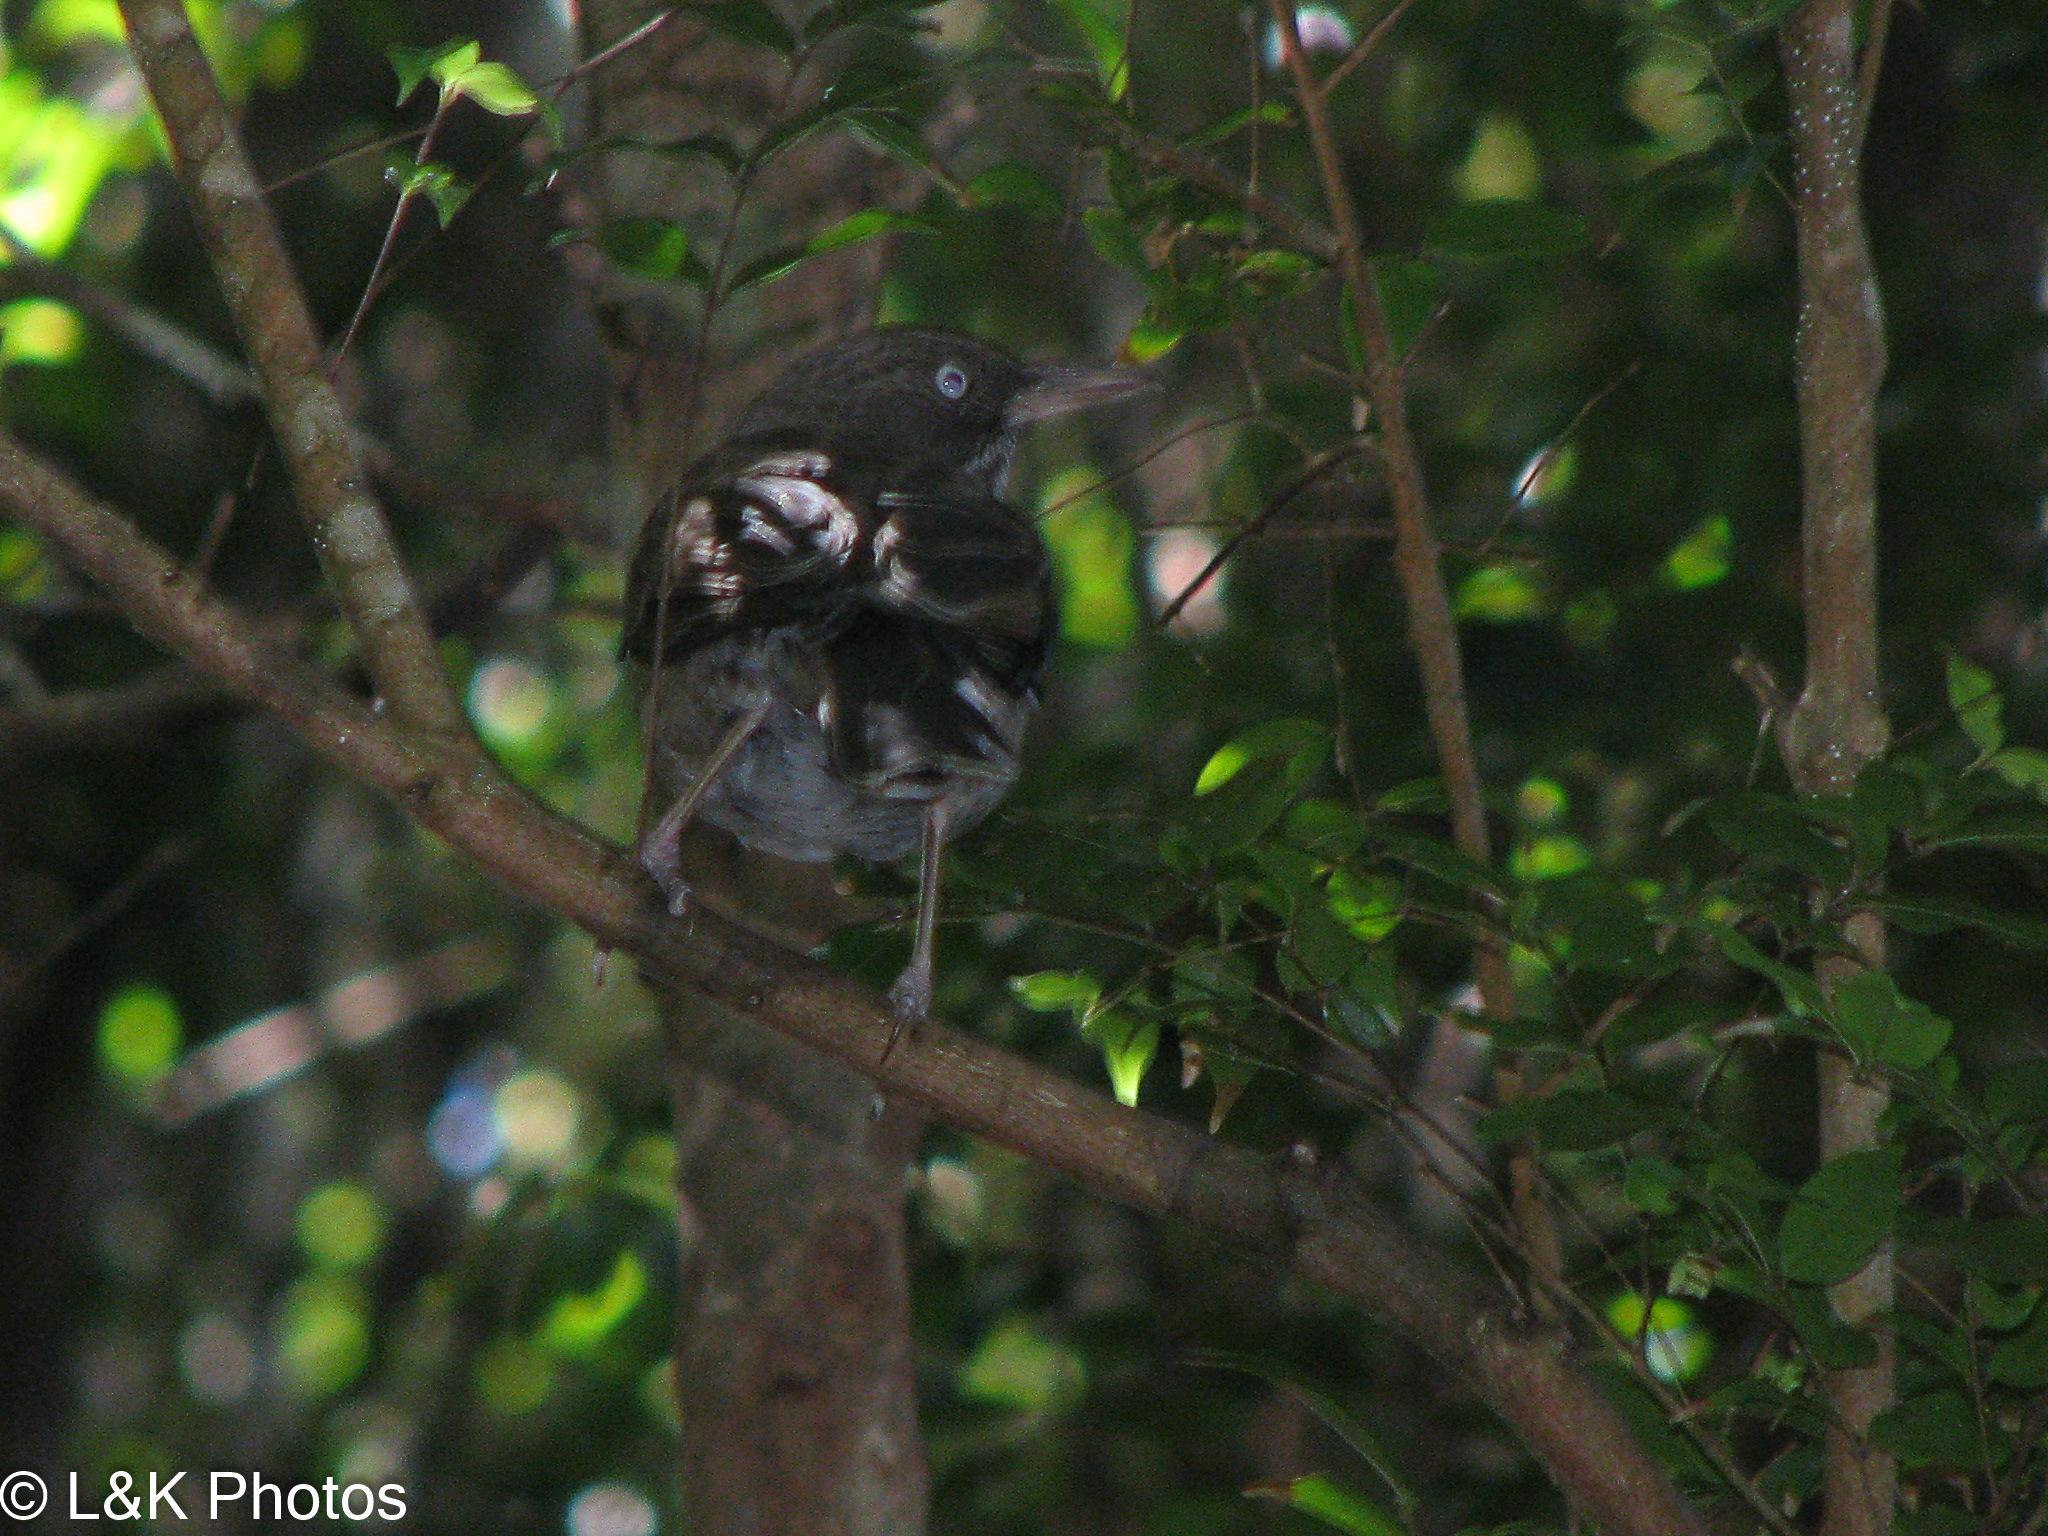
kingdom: Animalia
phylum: Chordata
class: Aves
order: Passeriformes
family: Mimidae
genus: Margarops
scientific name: Margarops fuscatus
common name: Pearly-eyed thrasher
